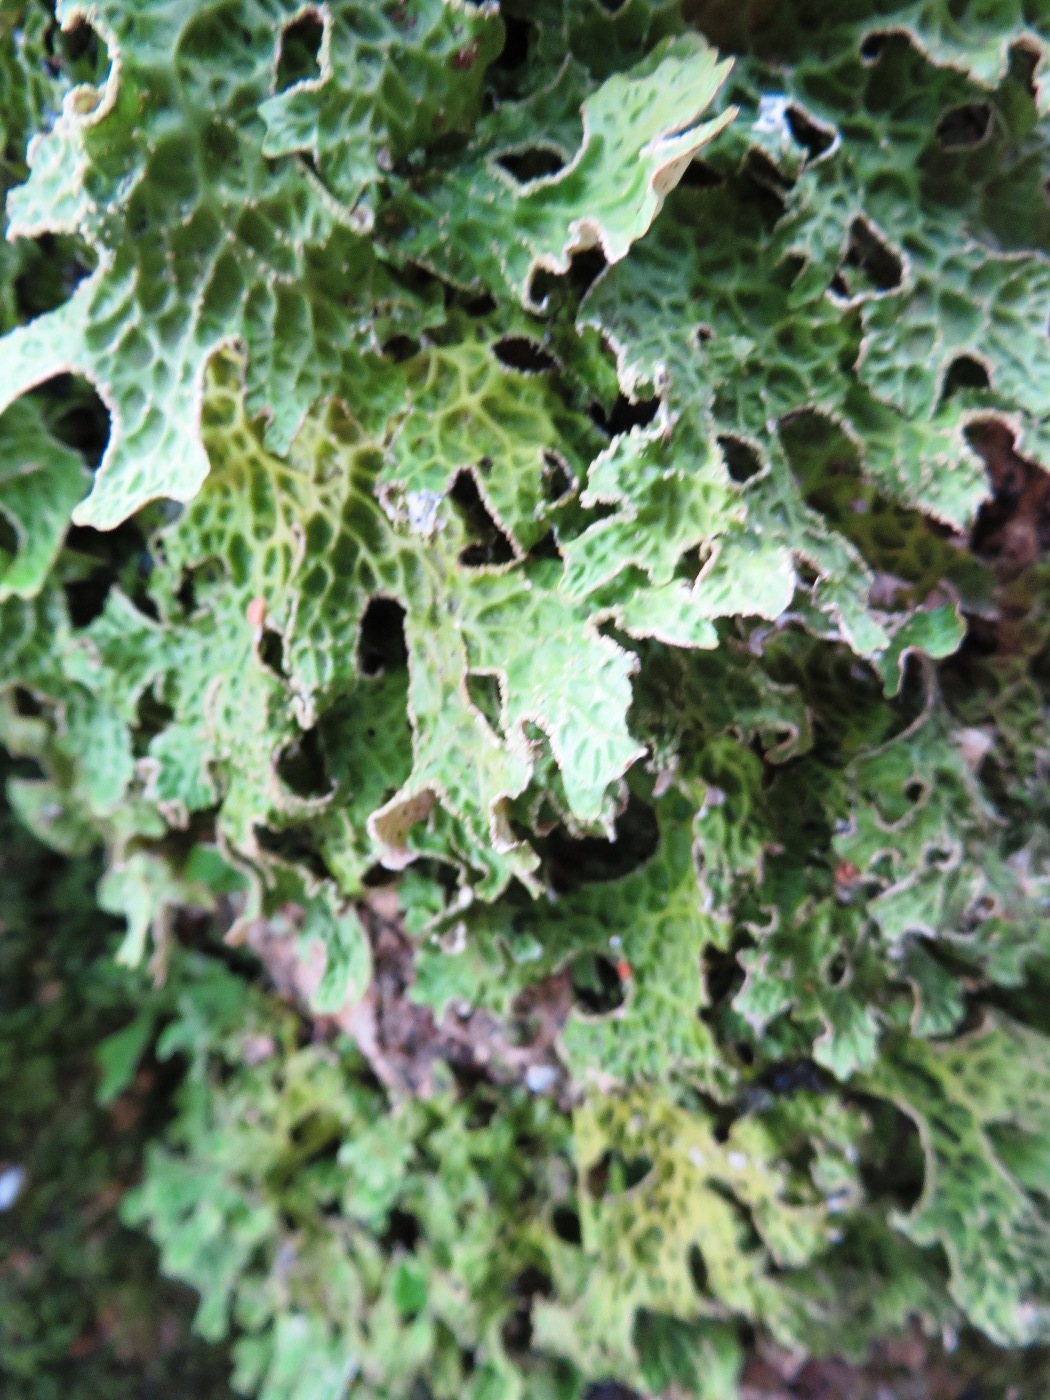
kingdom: Fungi
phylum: Ascomycota
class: Lecanoromycetes
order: Peltigerales
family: Lobariaceae
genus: Lobaria
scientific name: Lobaria pulmonaria
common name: Lungwort
